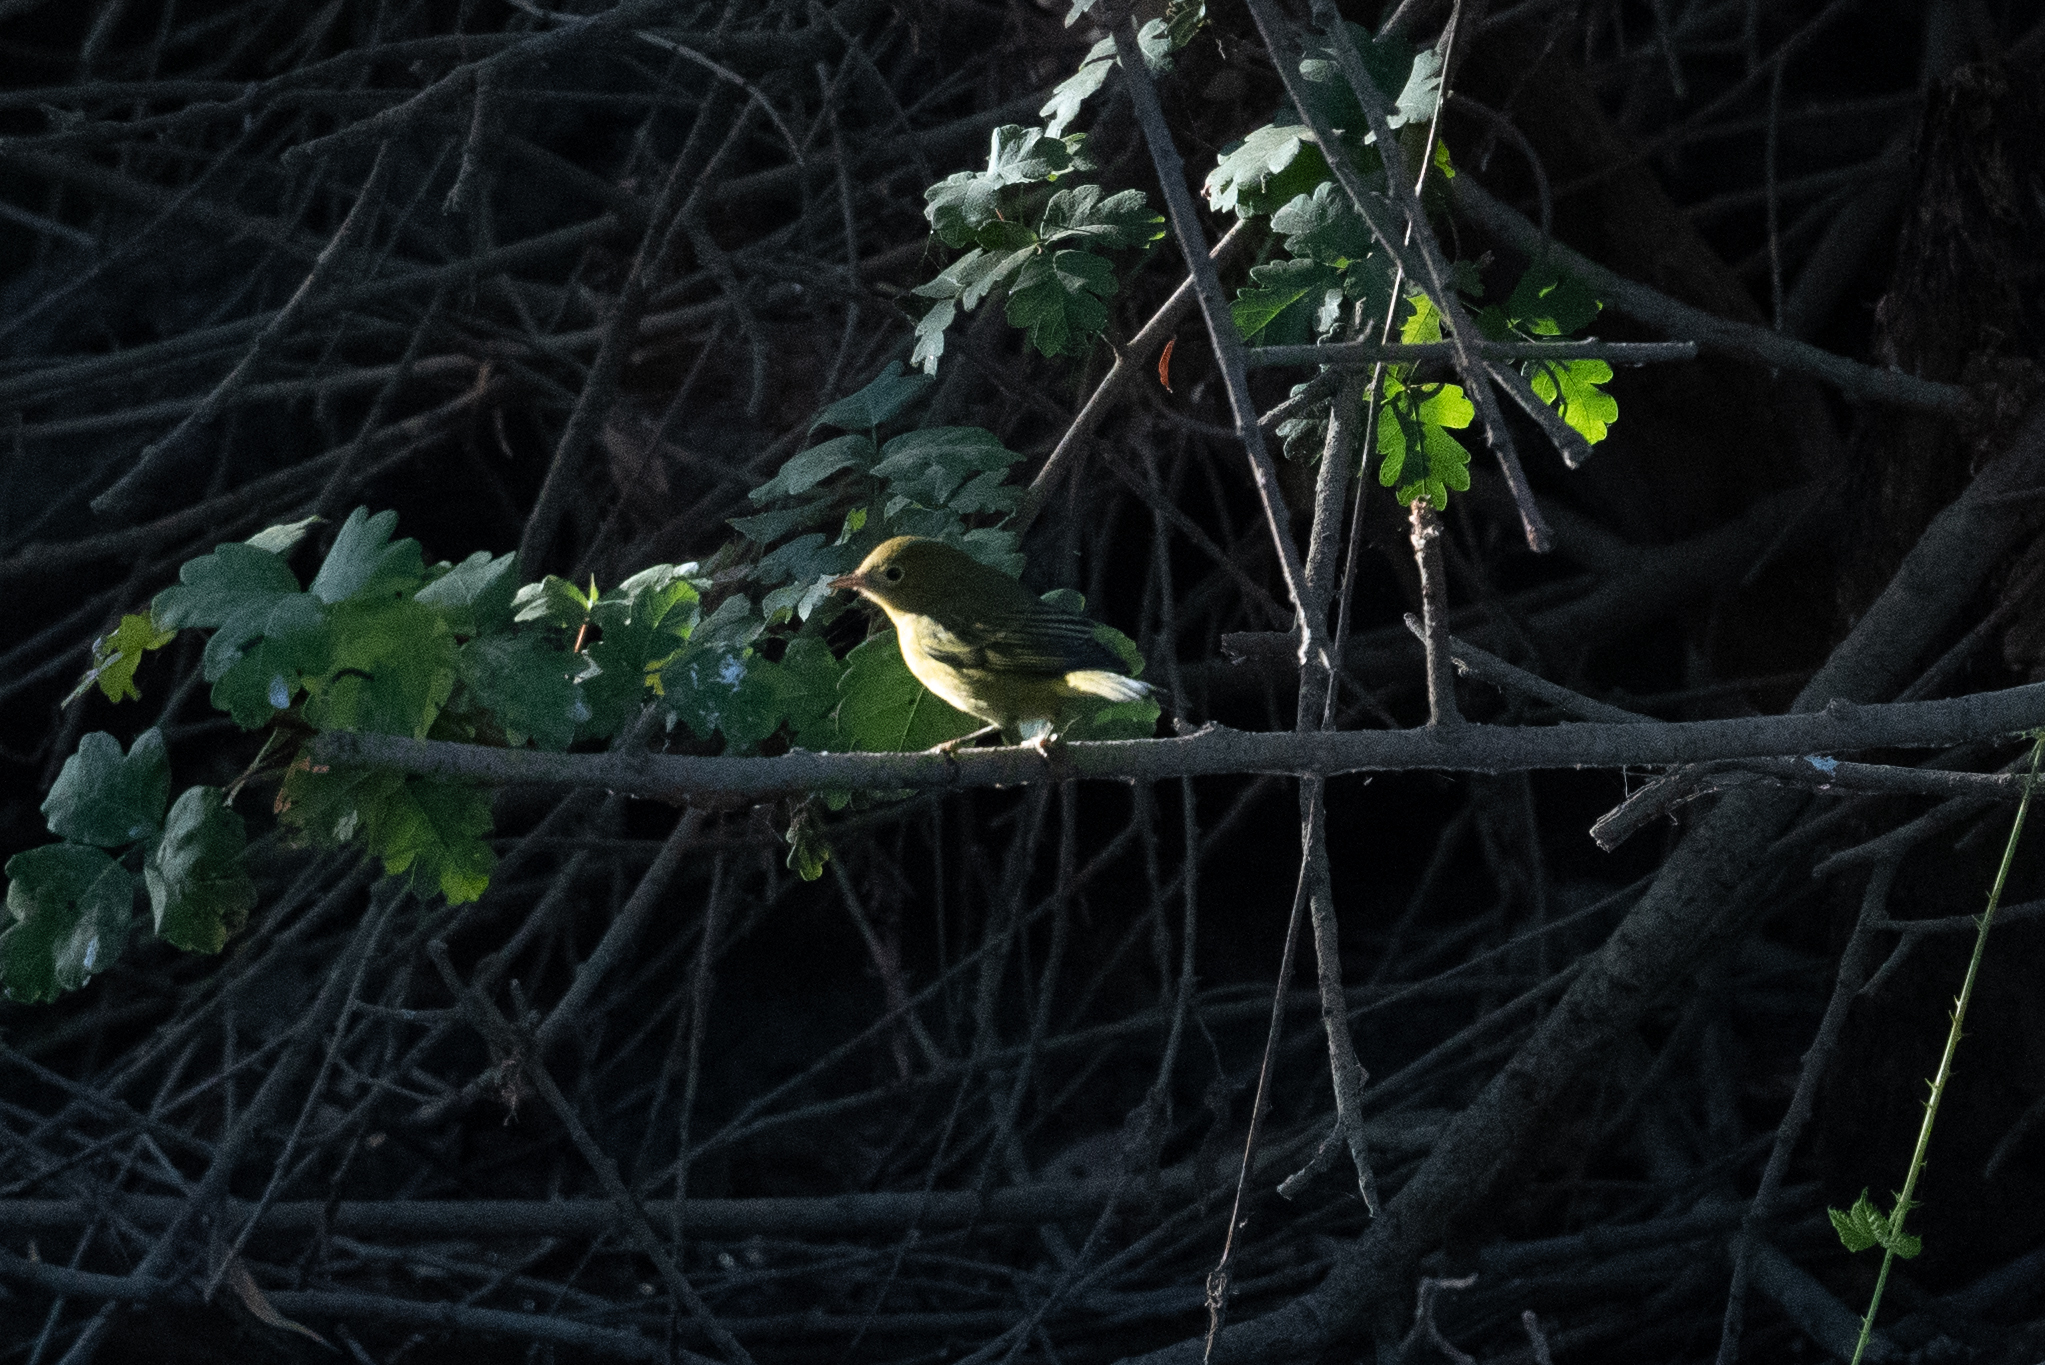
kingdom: Animalia
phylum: Chordata
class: Aves
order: Passeriformes
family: Parulidae
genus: Setophaga
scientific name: Setophaga petechia
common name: Yellow warbler
